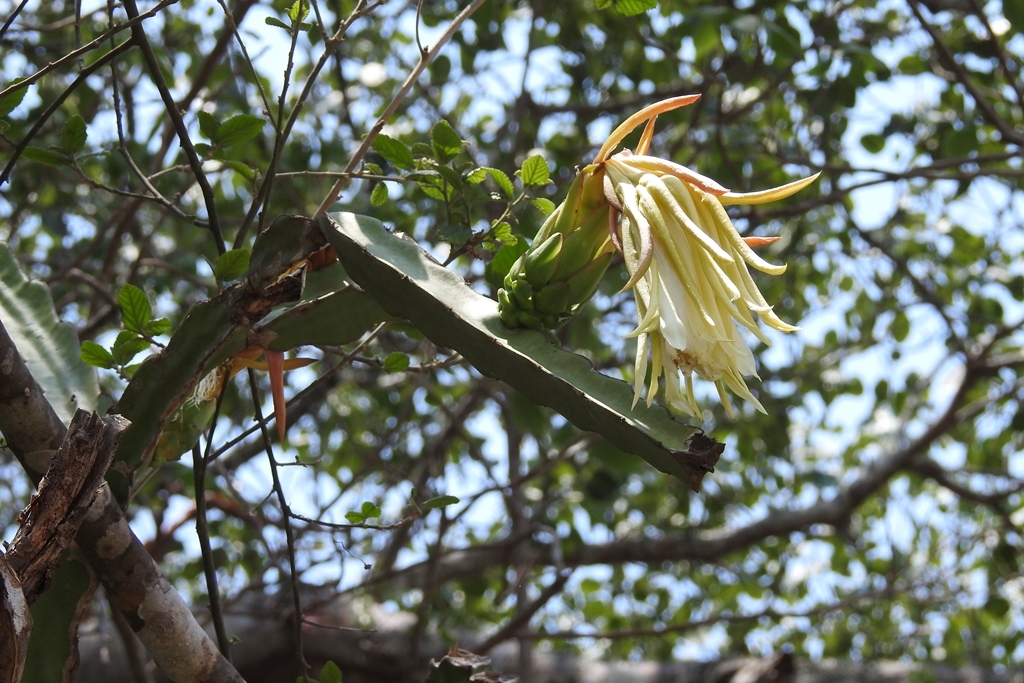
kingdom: Plantae
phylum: Tracheophyta
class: Magnoliopsida
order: Caryophyllales
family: Cactaceae
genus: Selenicereus
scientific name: Selenicereus ocamponis
